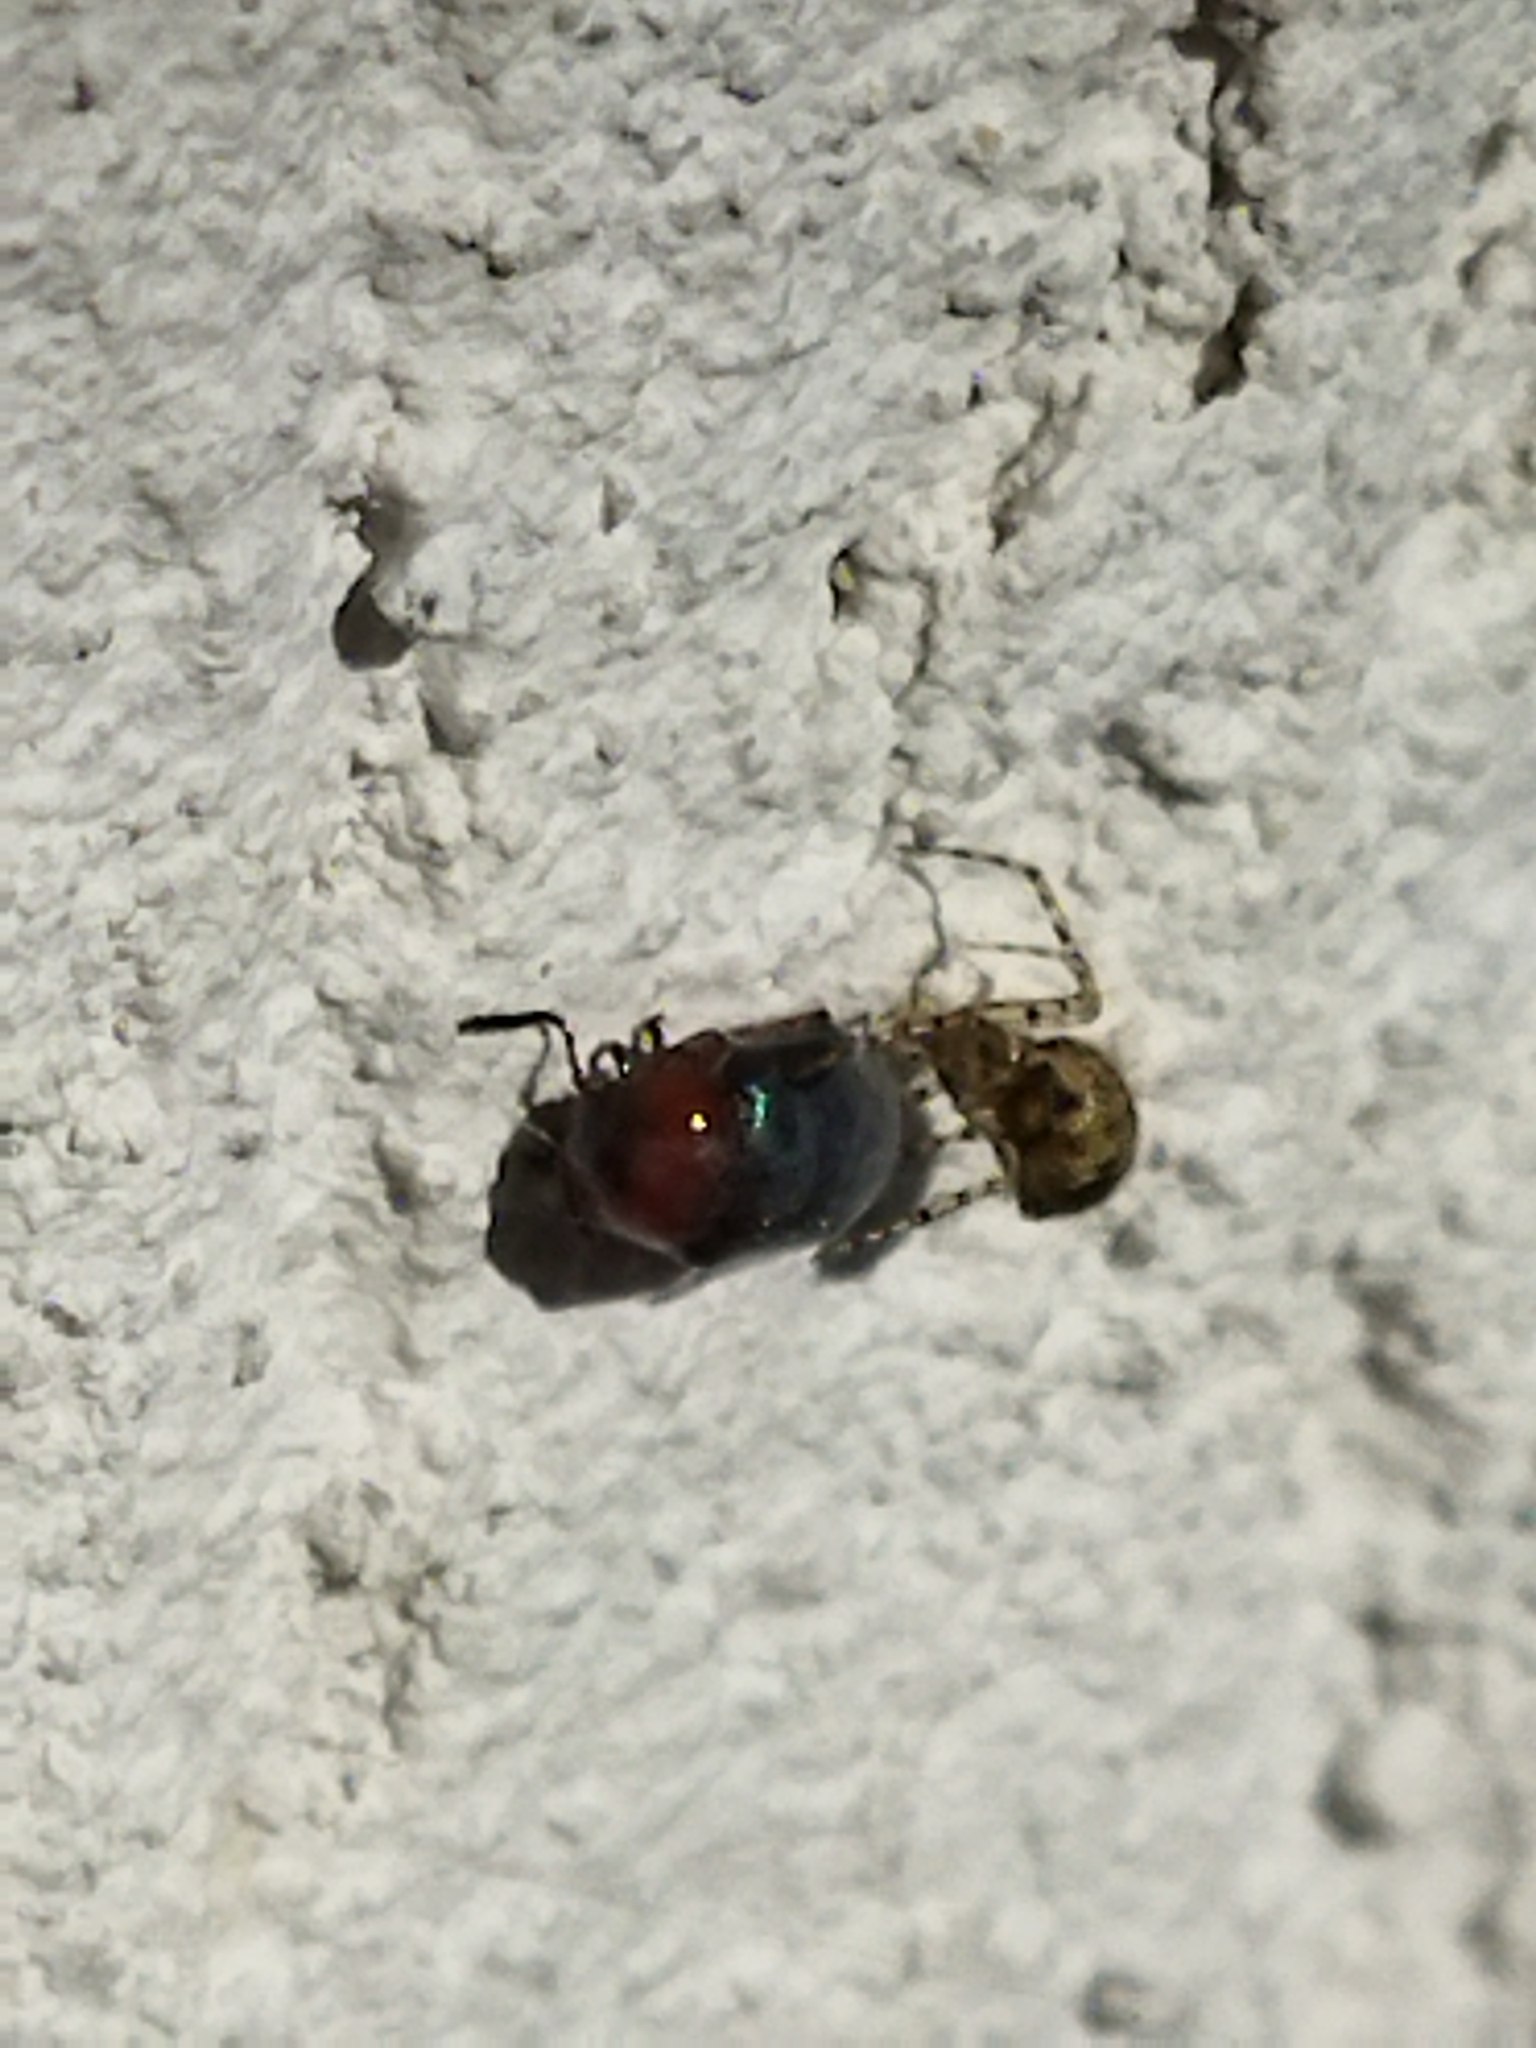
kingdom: Animalia
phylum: Arthropoda
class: Insecta
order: Coleoptera
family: Chrysomelidae
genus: Gastrophysa
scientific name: Gastrophysa polygoni
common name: Knotweed leaf beetle
